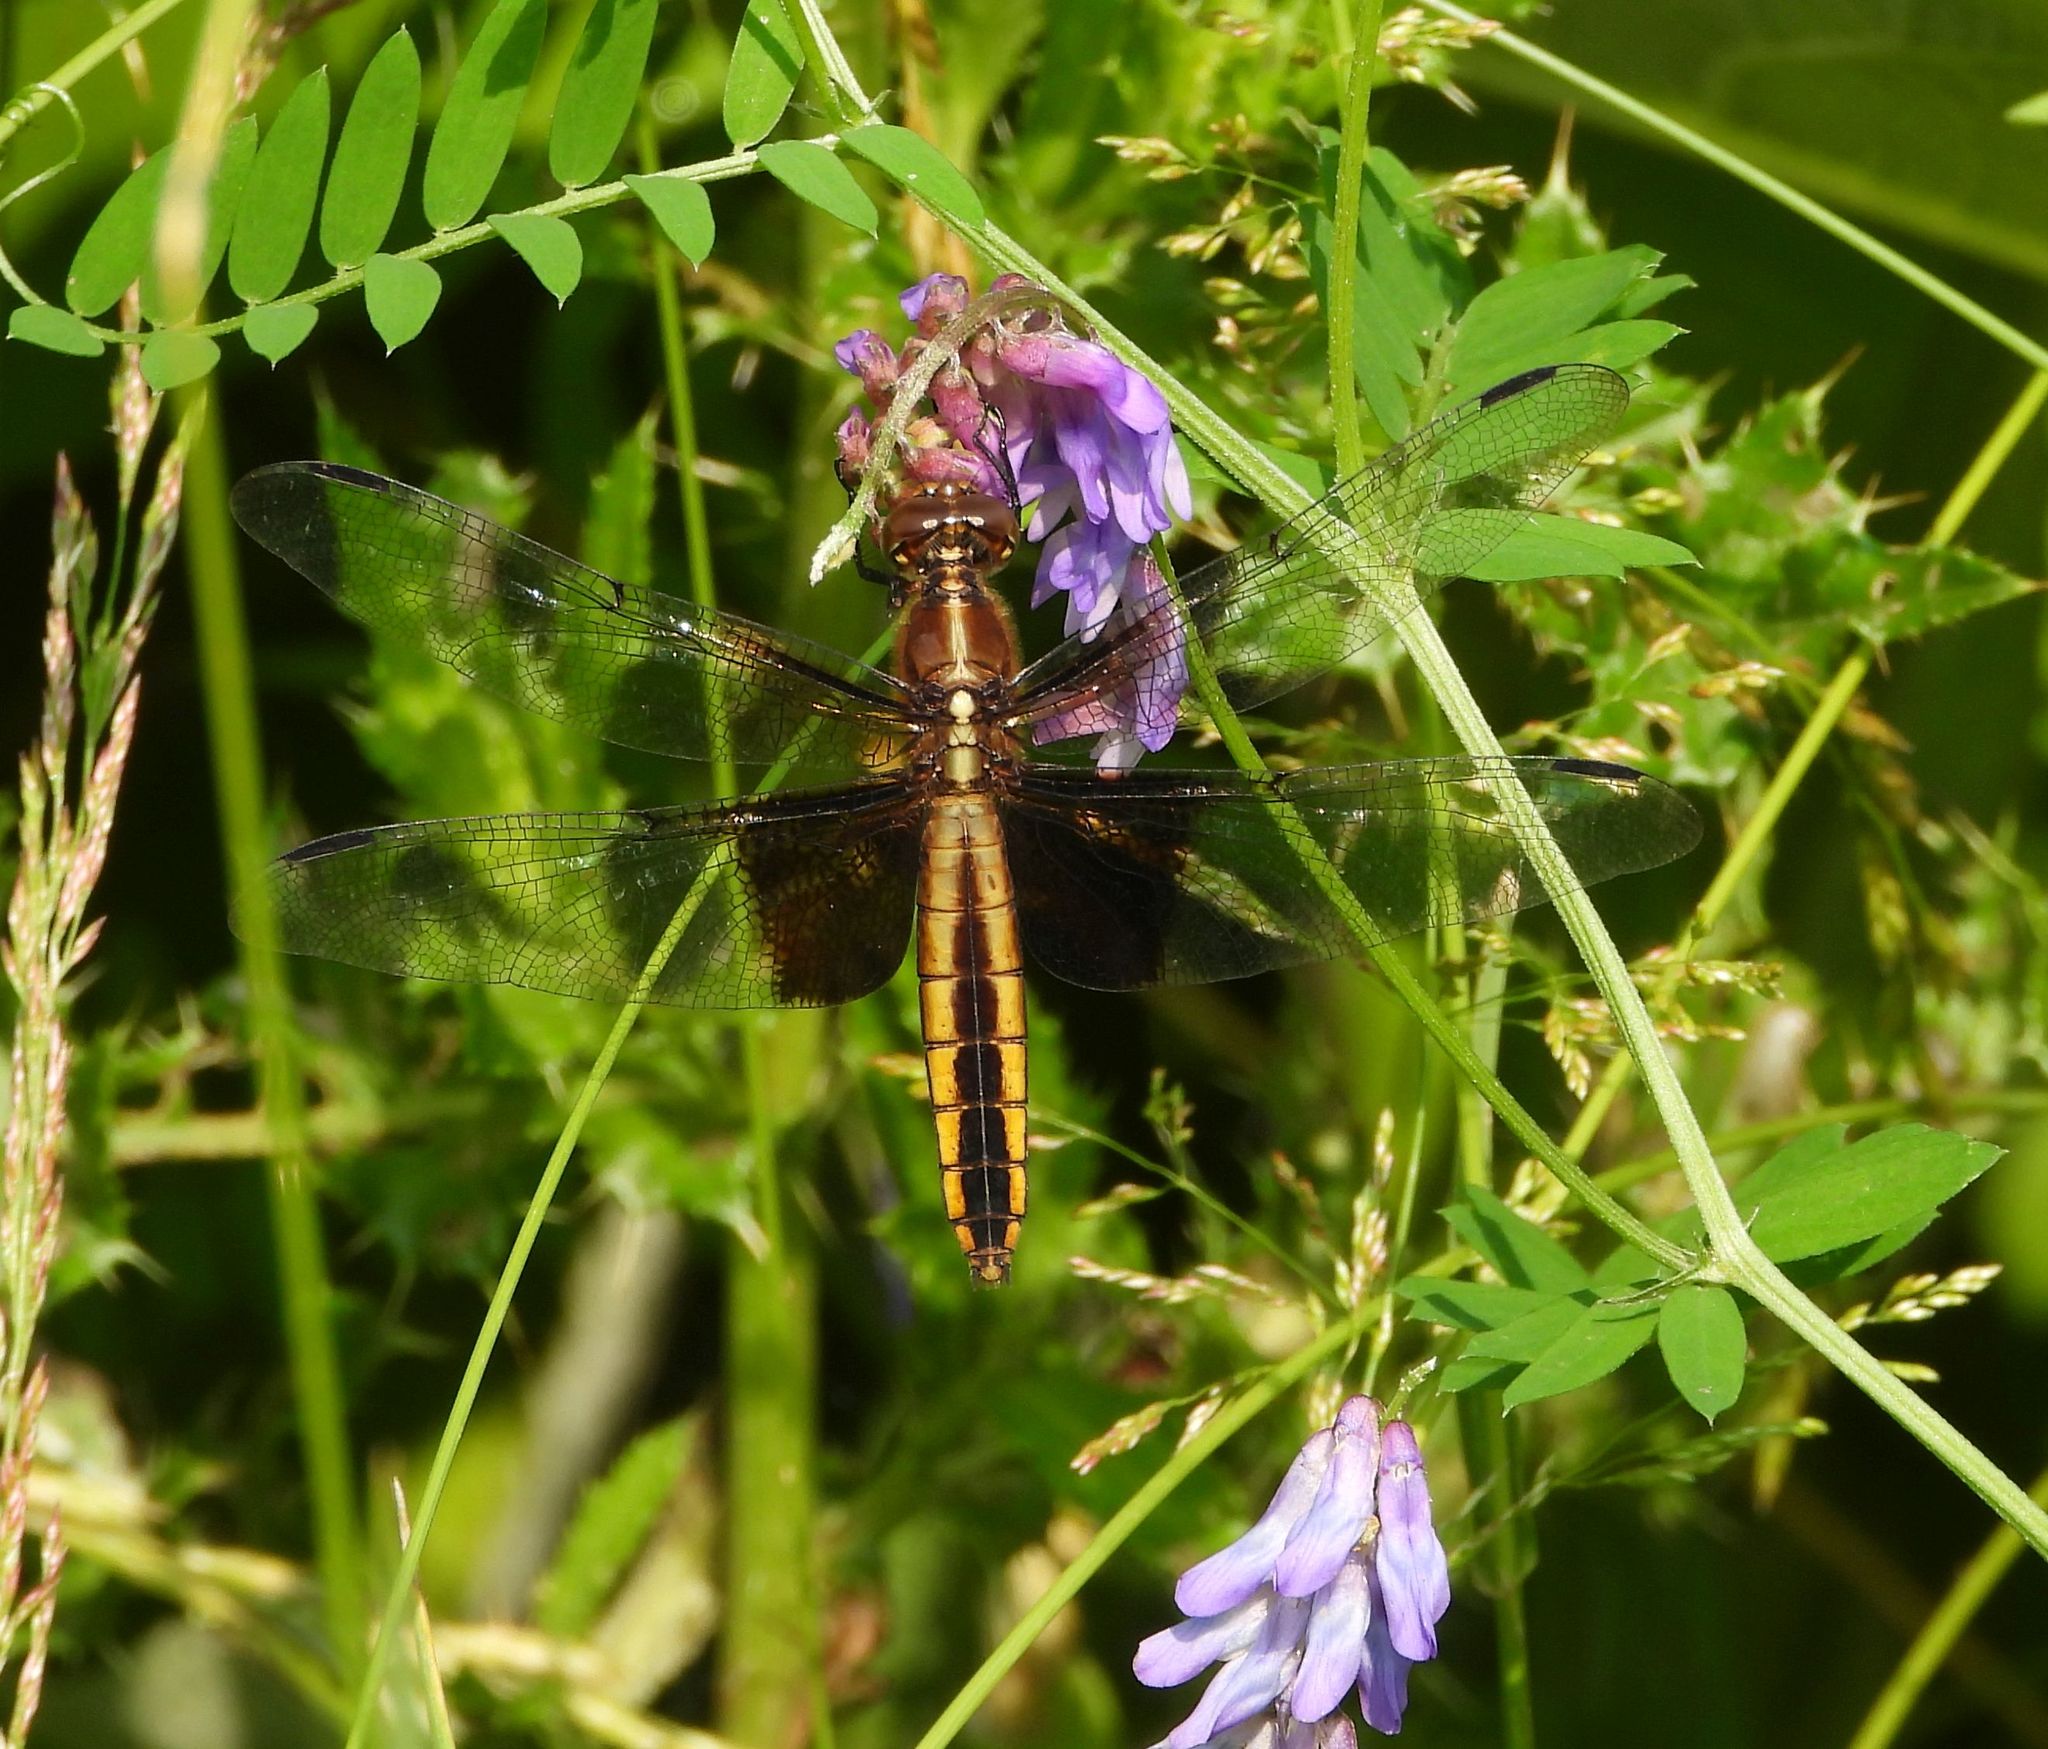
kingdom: Animalia
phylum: Arthropoda
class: Insecta
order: Odonata
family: Libellulidae
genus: Libellula
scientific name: Libellula luctuosa
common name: Widow skimmer
